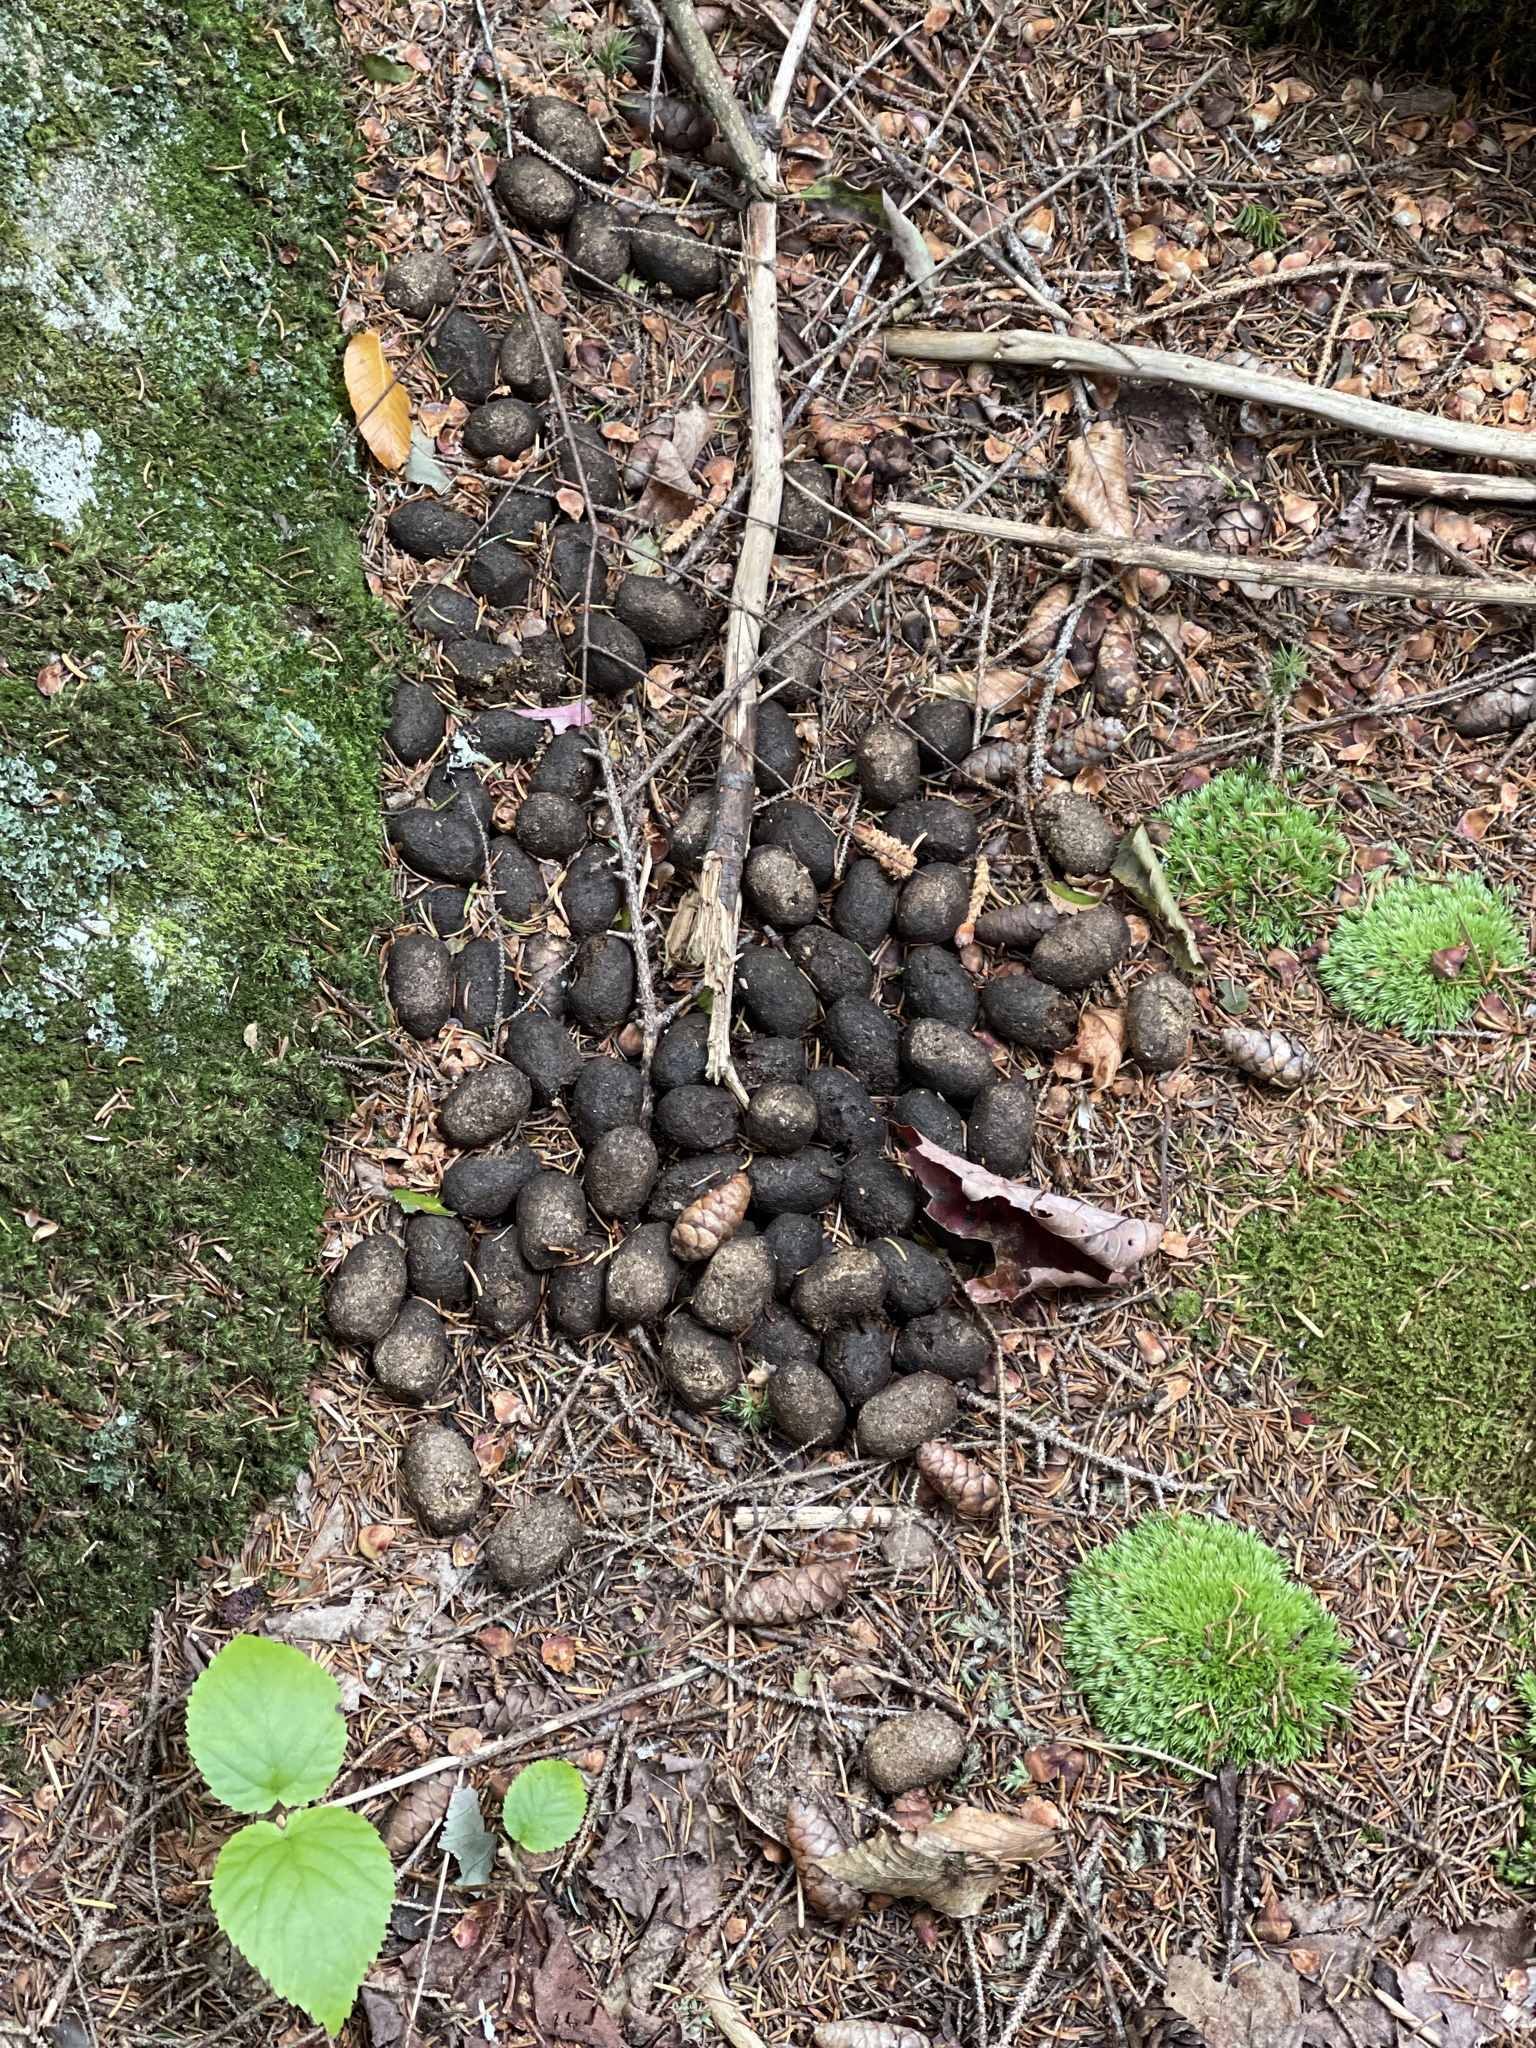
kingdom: Animalia
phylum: Chordata
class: Mammalia
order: Artiodactyla
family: Cervidae
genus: Alces
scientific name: Alces alces
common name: Moose
